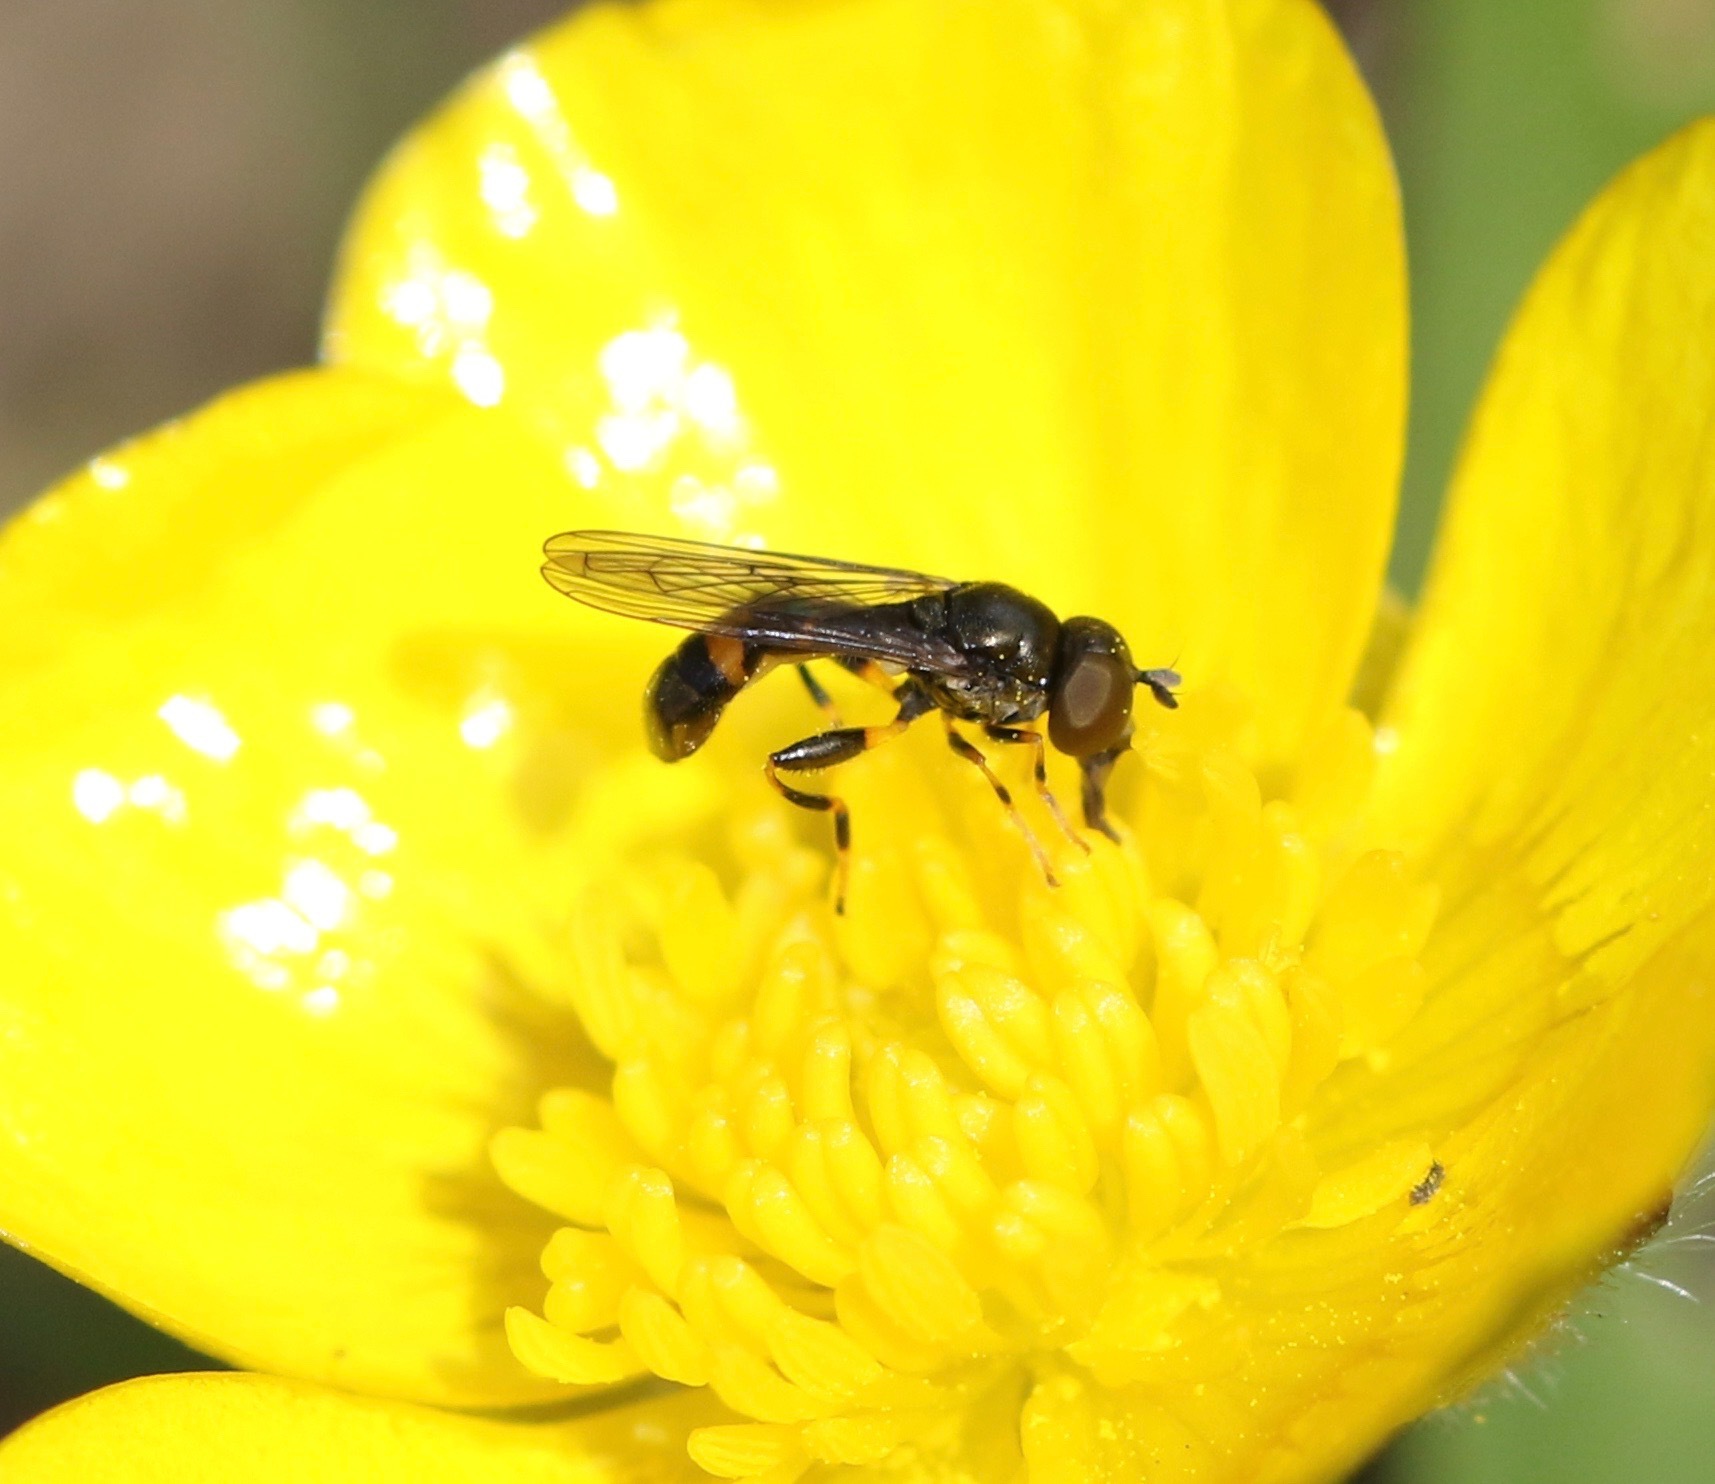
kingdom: Animalia
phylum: Arthropoda
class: Insecta
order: Diptera
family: Syrphidae
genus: Neoascia
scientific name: Neoascia
